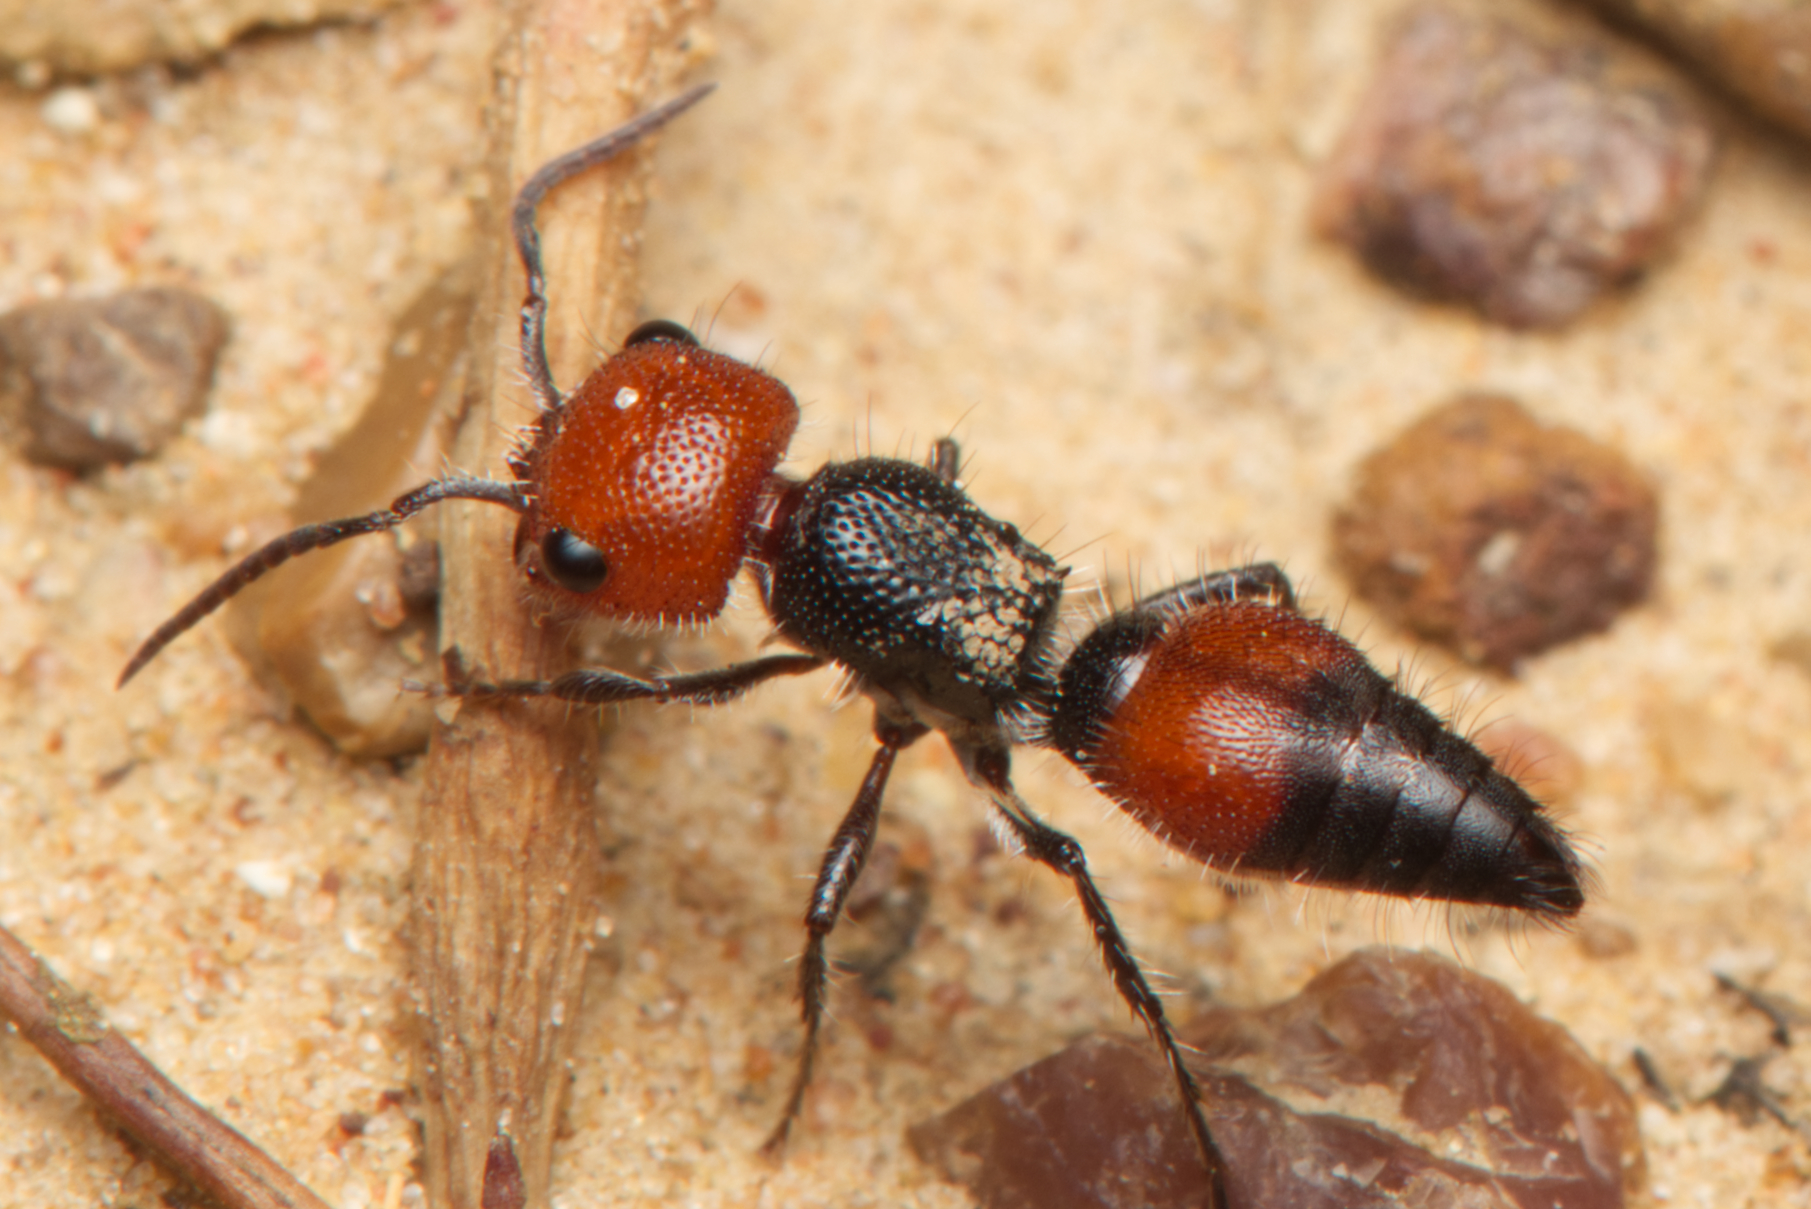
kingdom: Animalia
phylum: Arthropoda
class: Insecta
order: Hymenoptera
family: Mutillidae
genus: Ephutomorpha
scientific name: Ephutomorpha
